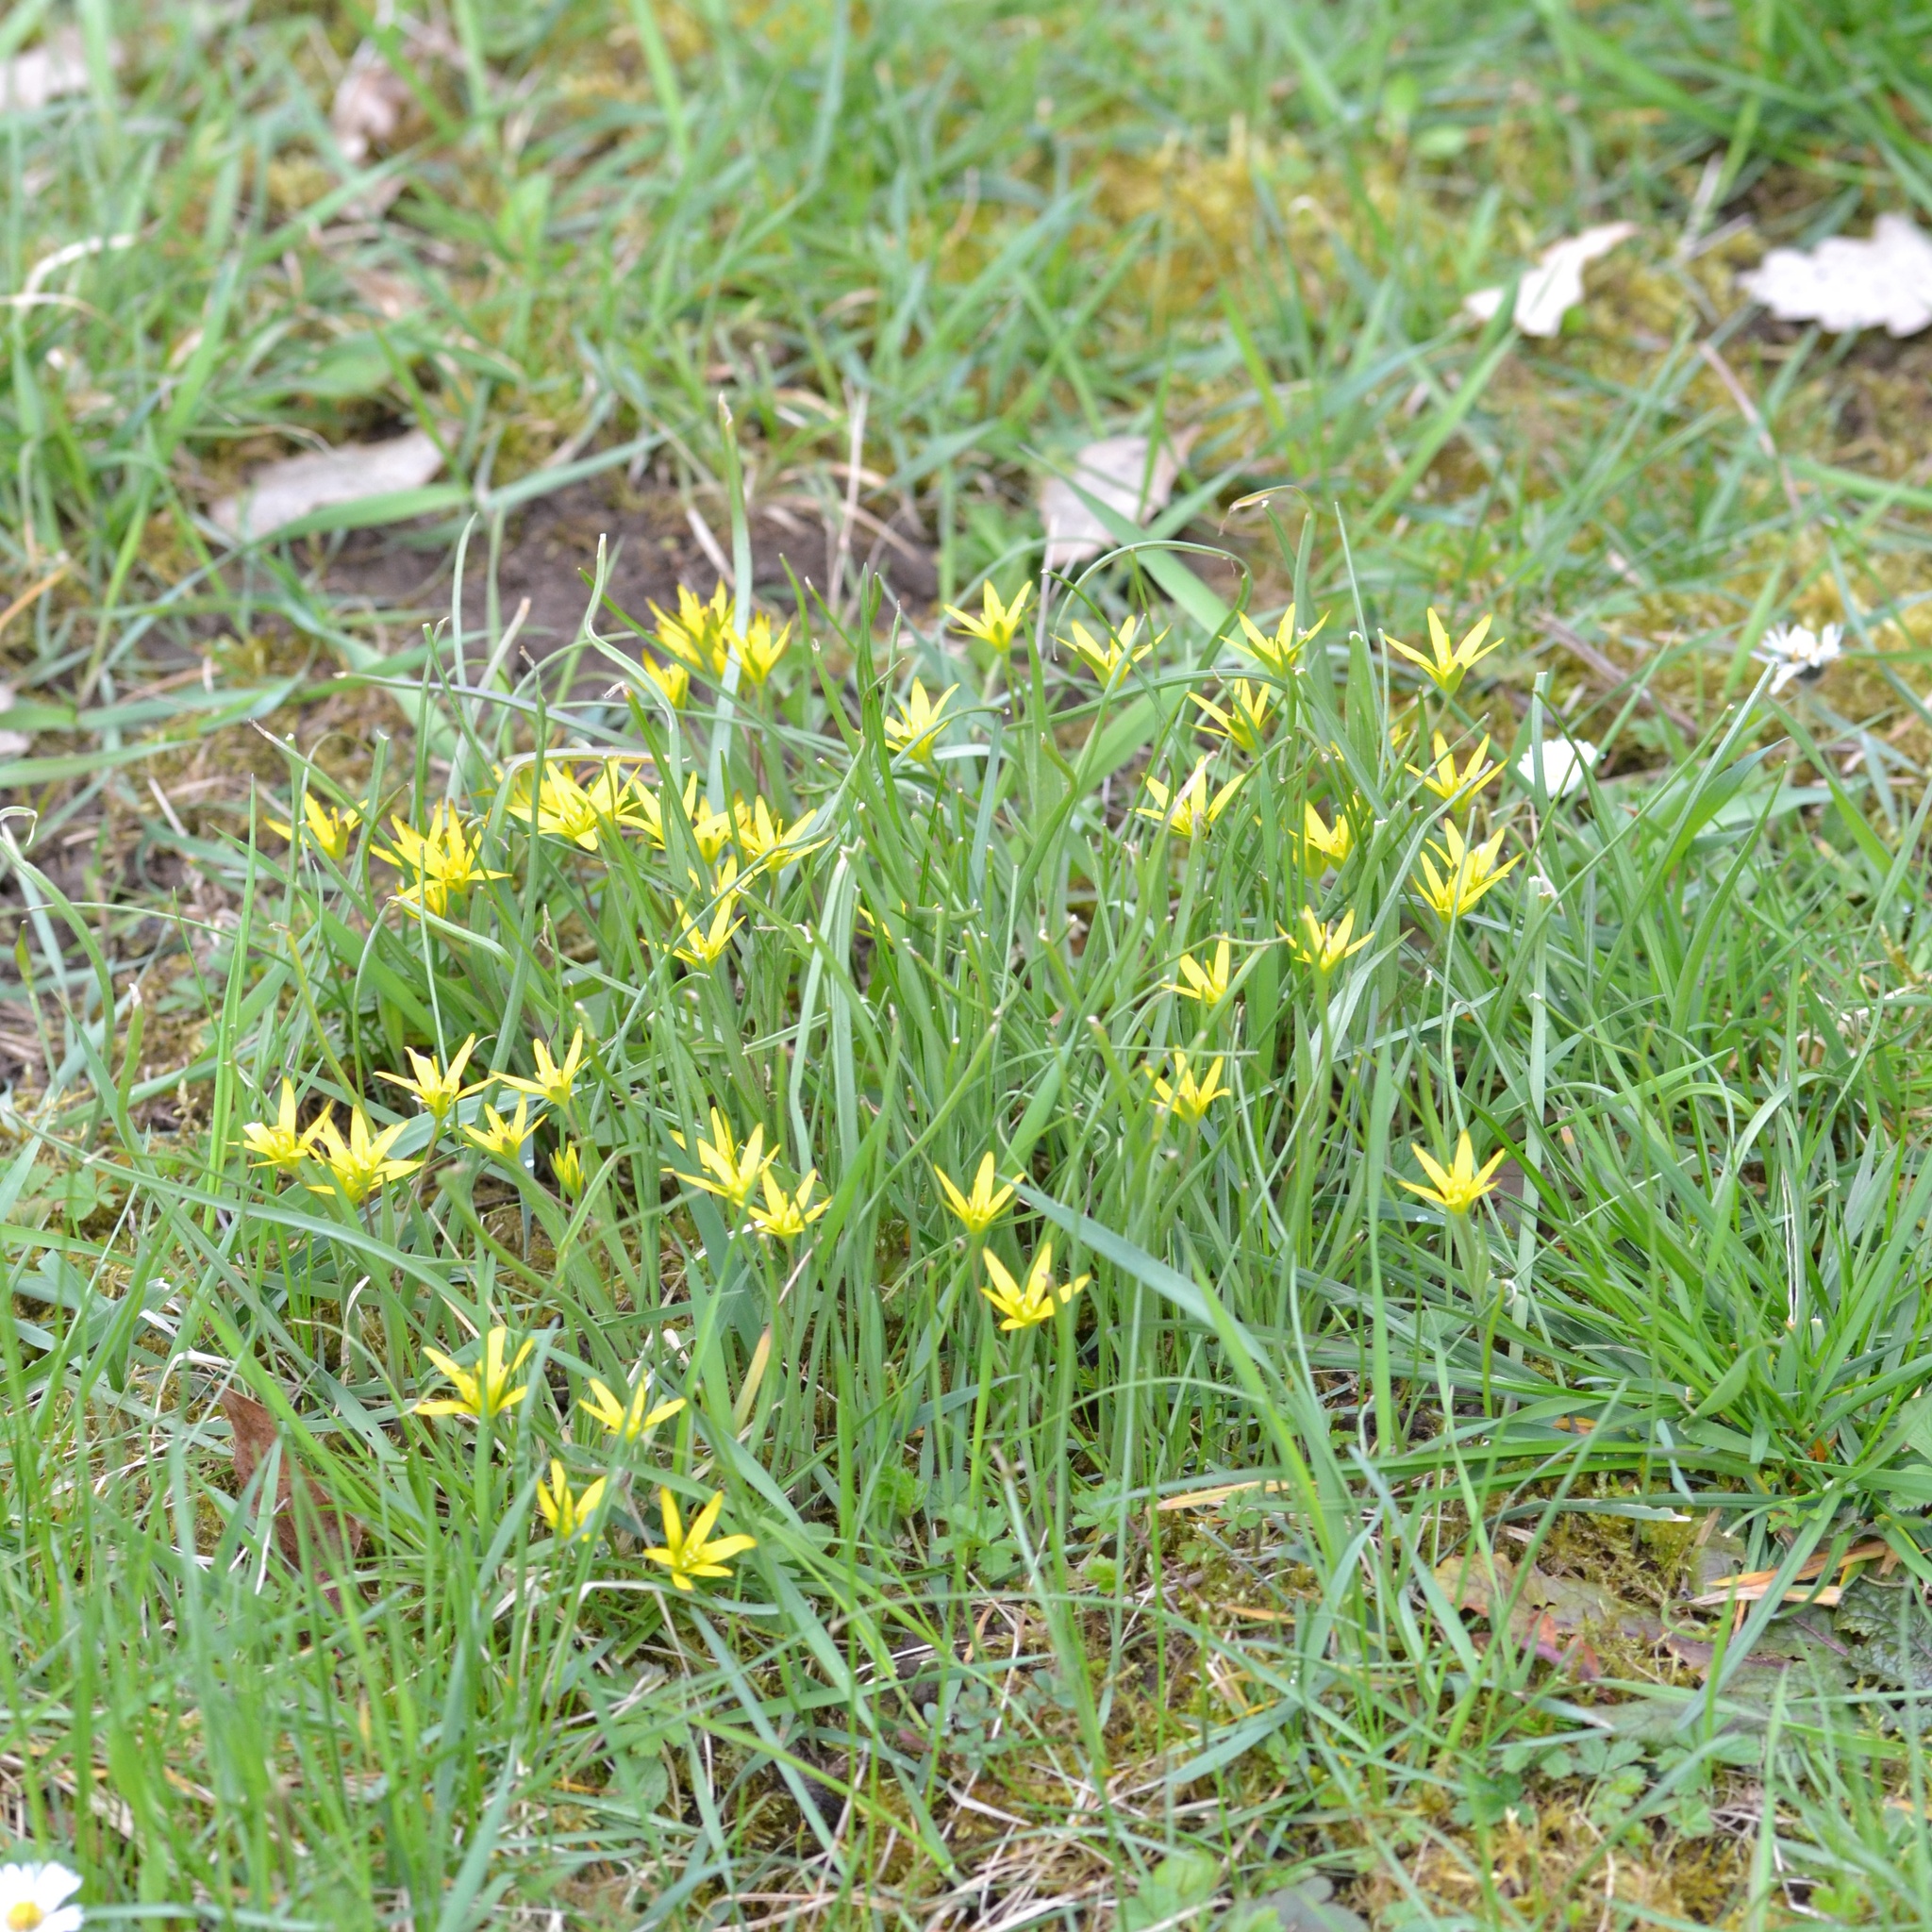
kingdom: Plantae
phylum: Tracheophyta
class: Liliopsida
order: Liliales
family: Liliaceae
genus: Gagea
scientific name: Gagea pratensis
